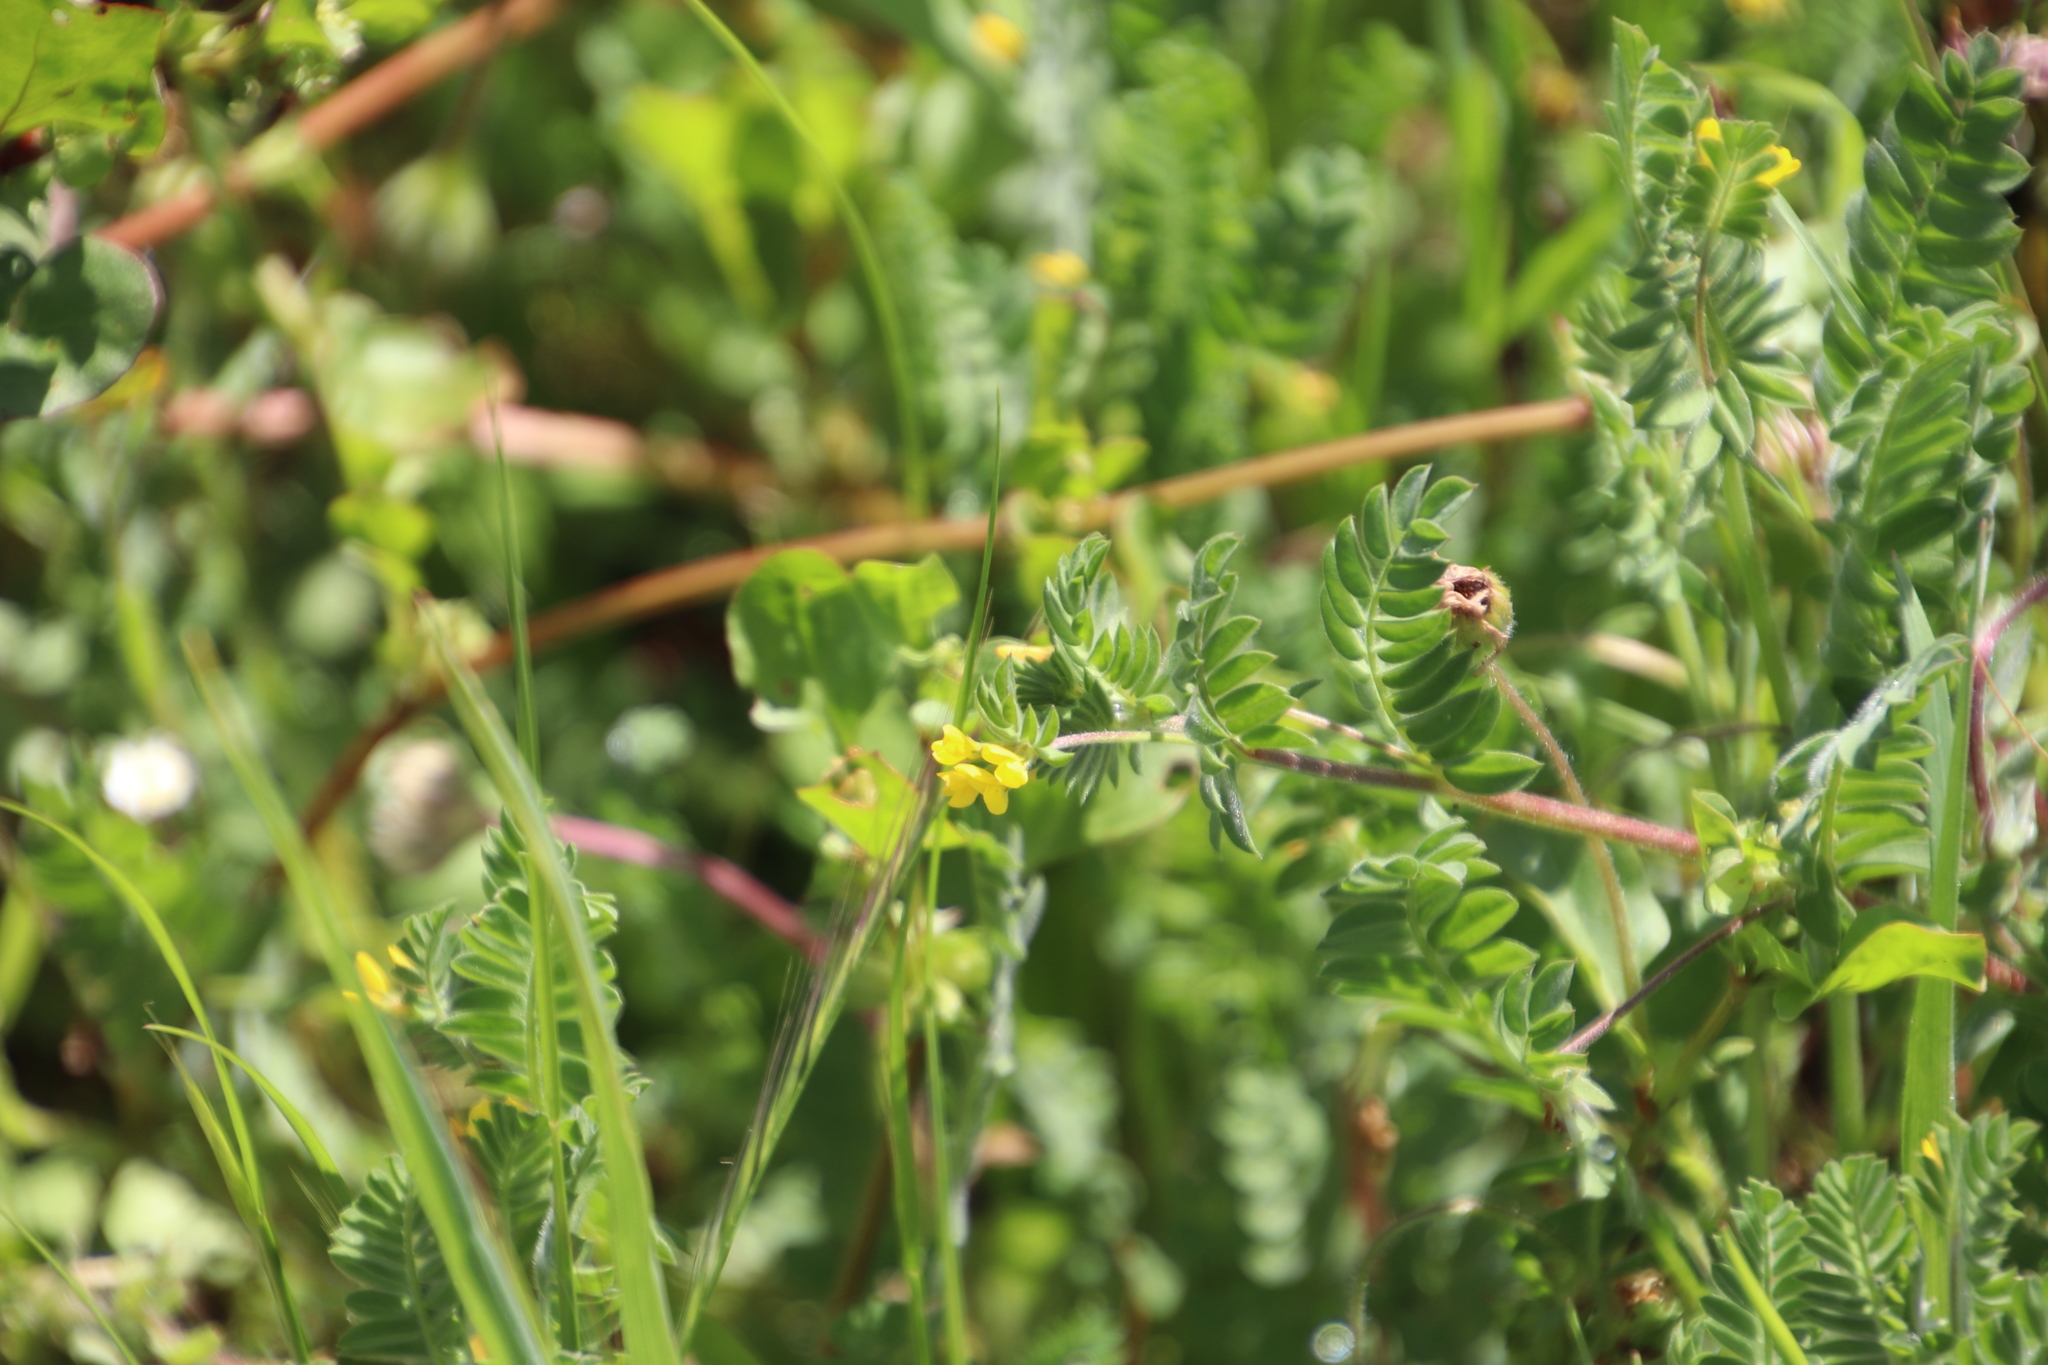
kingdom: Plantae
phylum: Tracheophyta
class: Magnoliopsida
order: Fabales
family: Fabaceae
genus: Ornithopus
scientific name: Ornithopus compressus
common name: Yellow serradella
